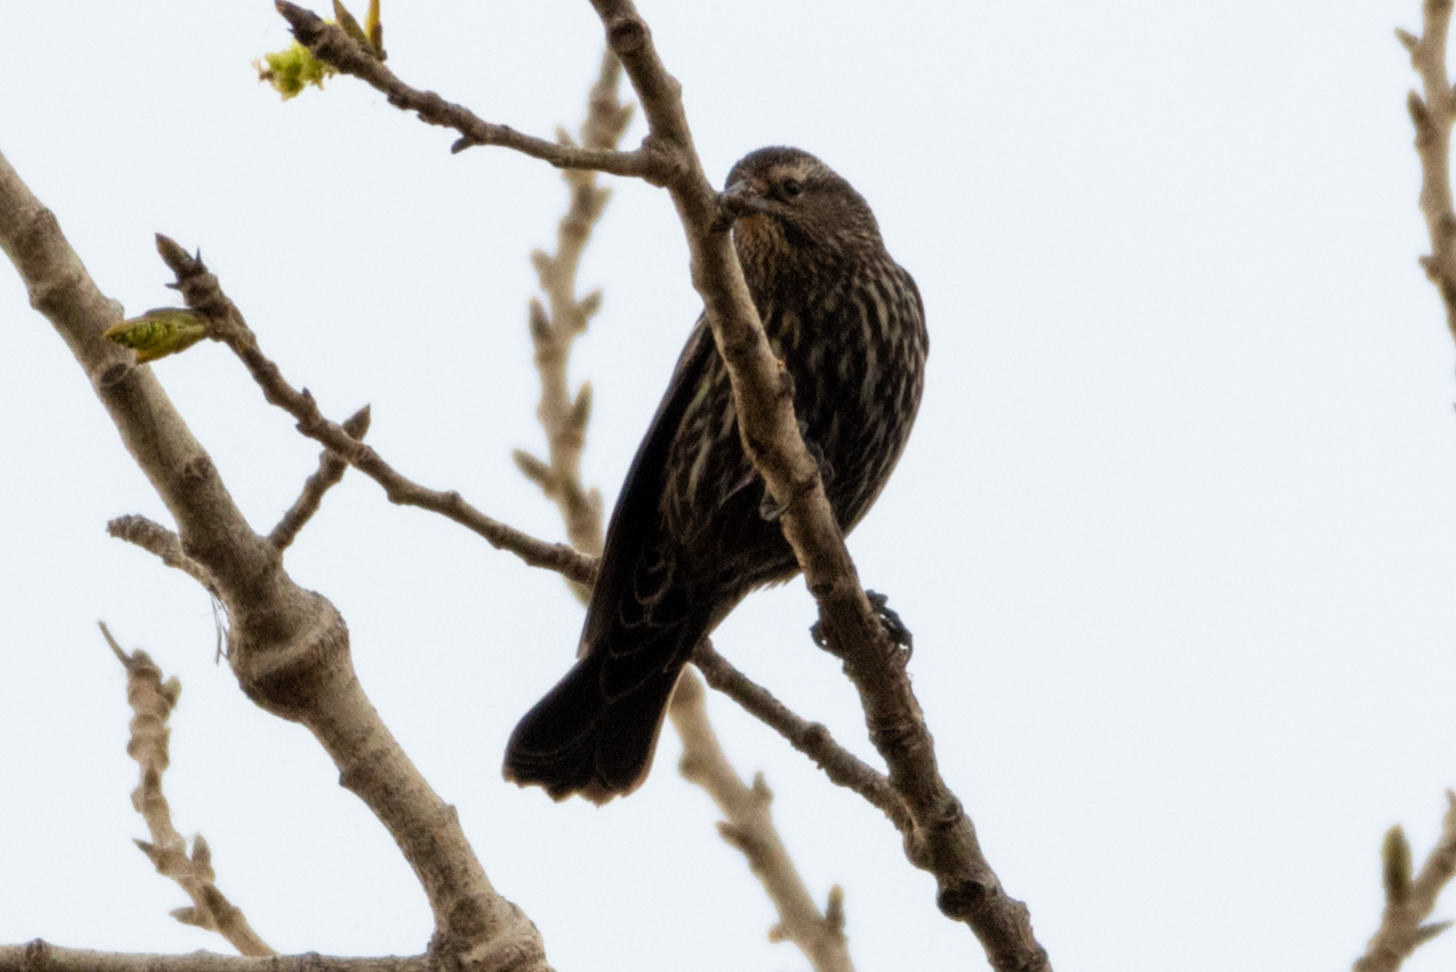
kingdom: Animalia
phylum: Chordata
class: Aves
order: Passeriformes
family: Icteridae
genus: Agelaius
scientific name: Agelaius phoeniceus
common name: Red-winged blackbird
